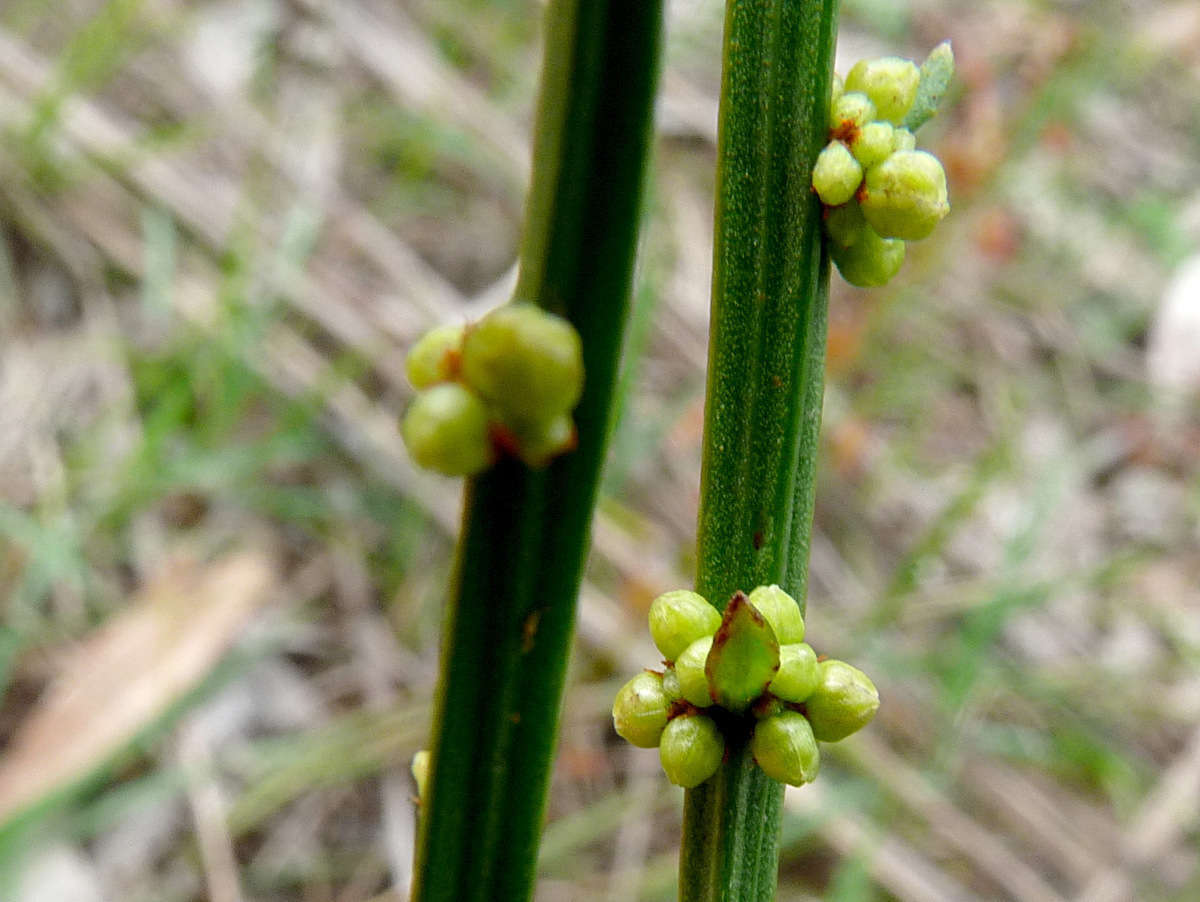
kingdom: Plantae
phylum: Tracheophyta
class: Magnoliopsida
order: Malpighiales
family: Euphorbiaceae
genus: Amperea
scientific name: Amperea xiphoclada
